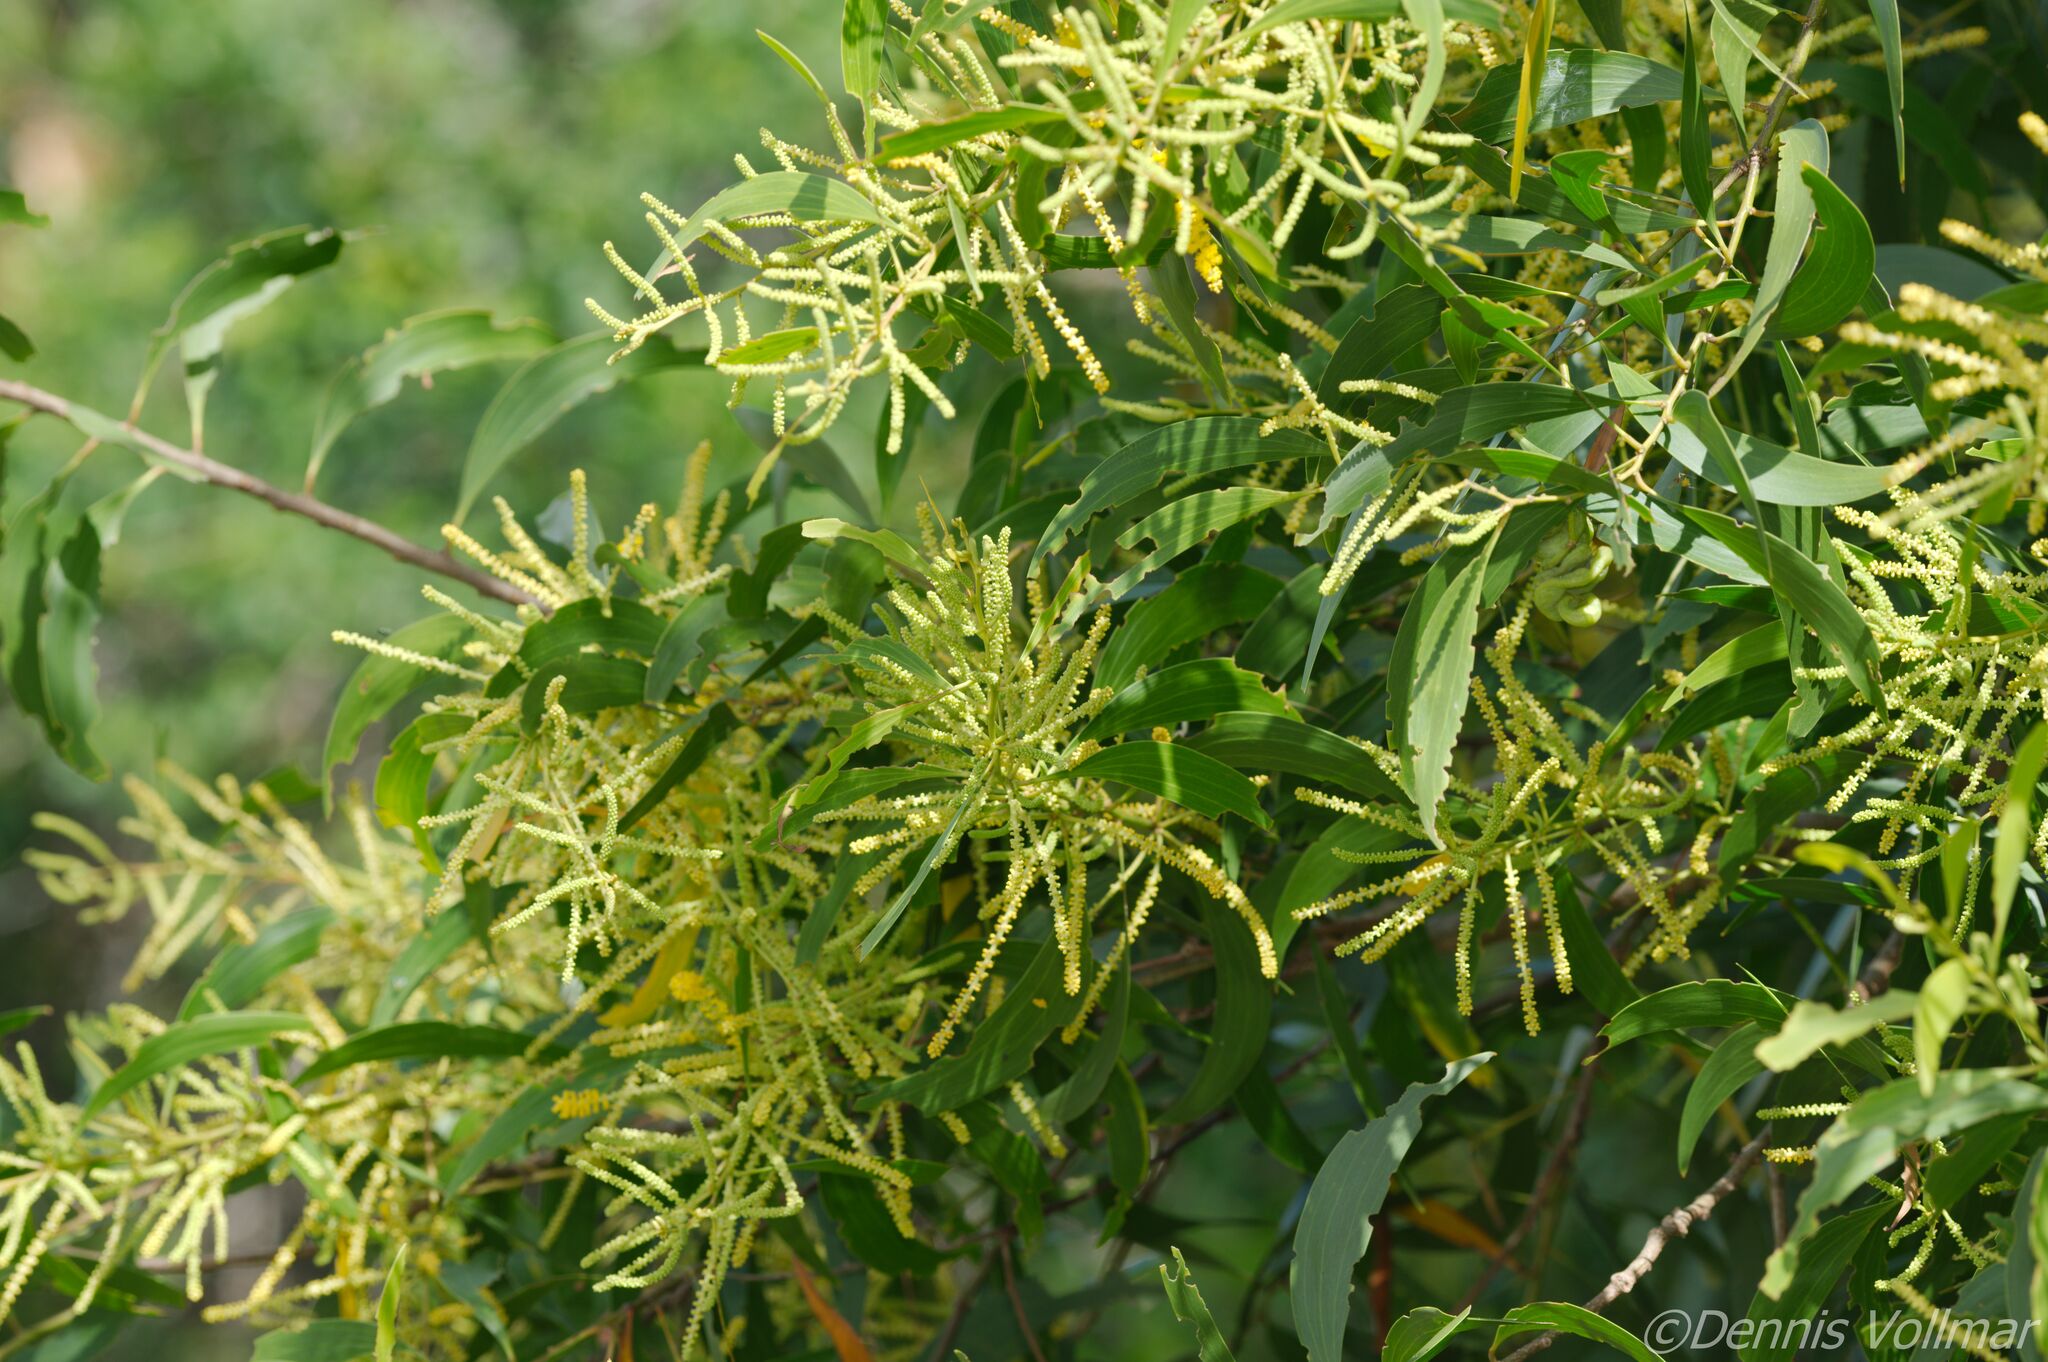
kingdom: Plantae
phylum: Tracheophyta
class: Magnoliopsida
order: Fabales
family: Fabaceae
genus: Acacia
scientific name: Acacia auriculiformis
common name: Earleaf acacia
